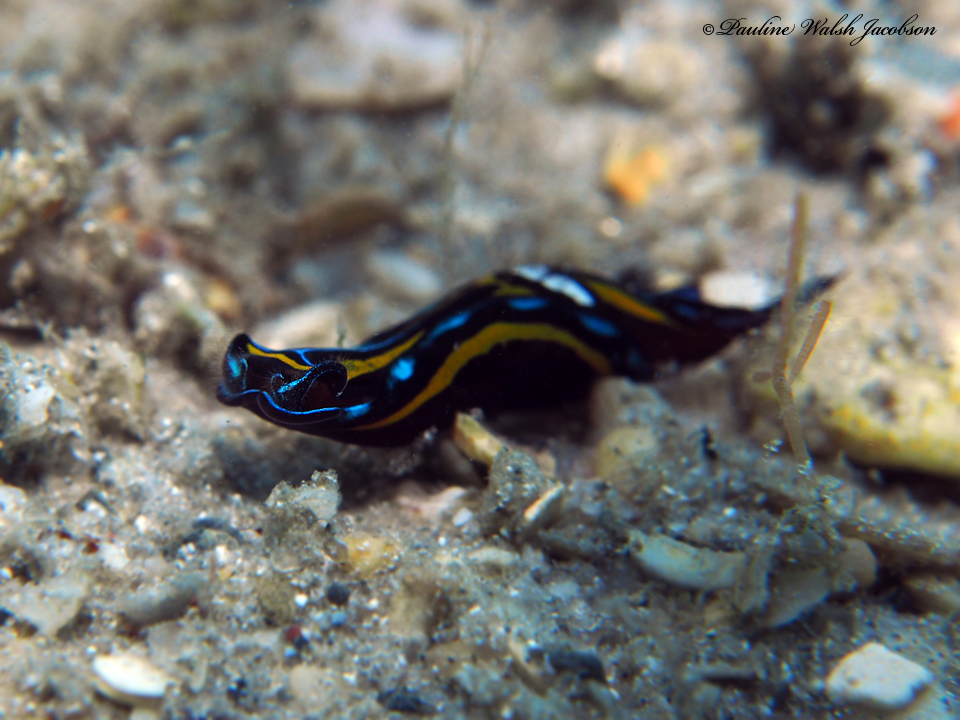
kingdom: Animalia
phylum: Mollusca
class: Gastropoda
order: Cephalaspidea
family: Aglajidae
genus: Chelidonura
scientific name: Chelidonura hirundinina
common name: Leech headshield slug
